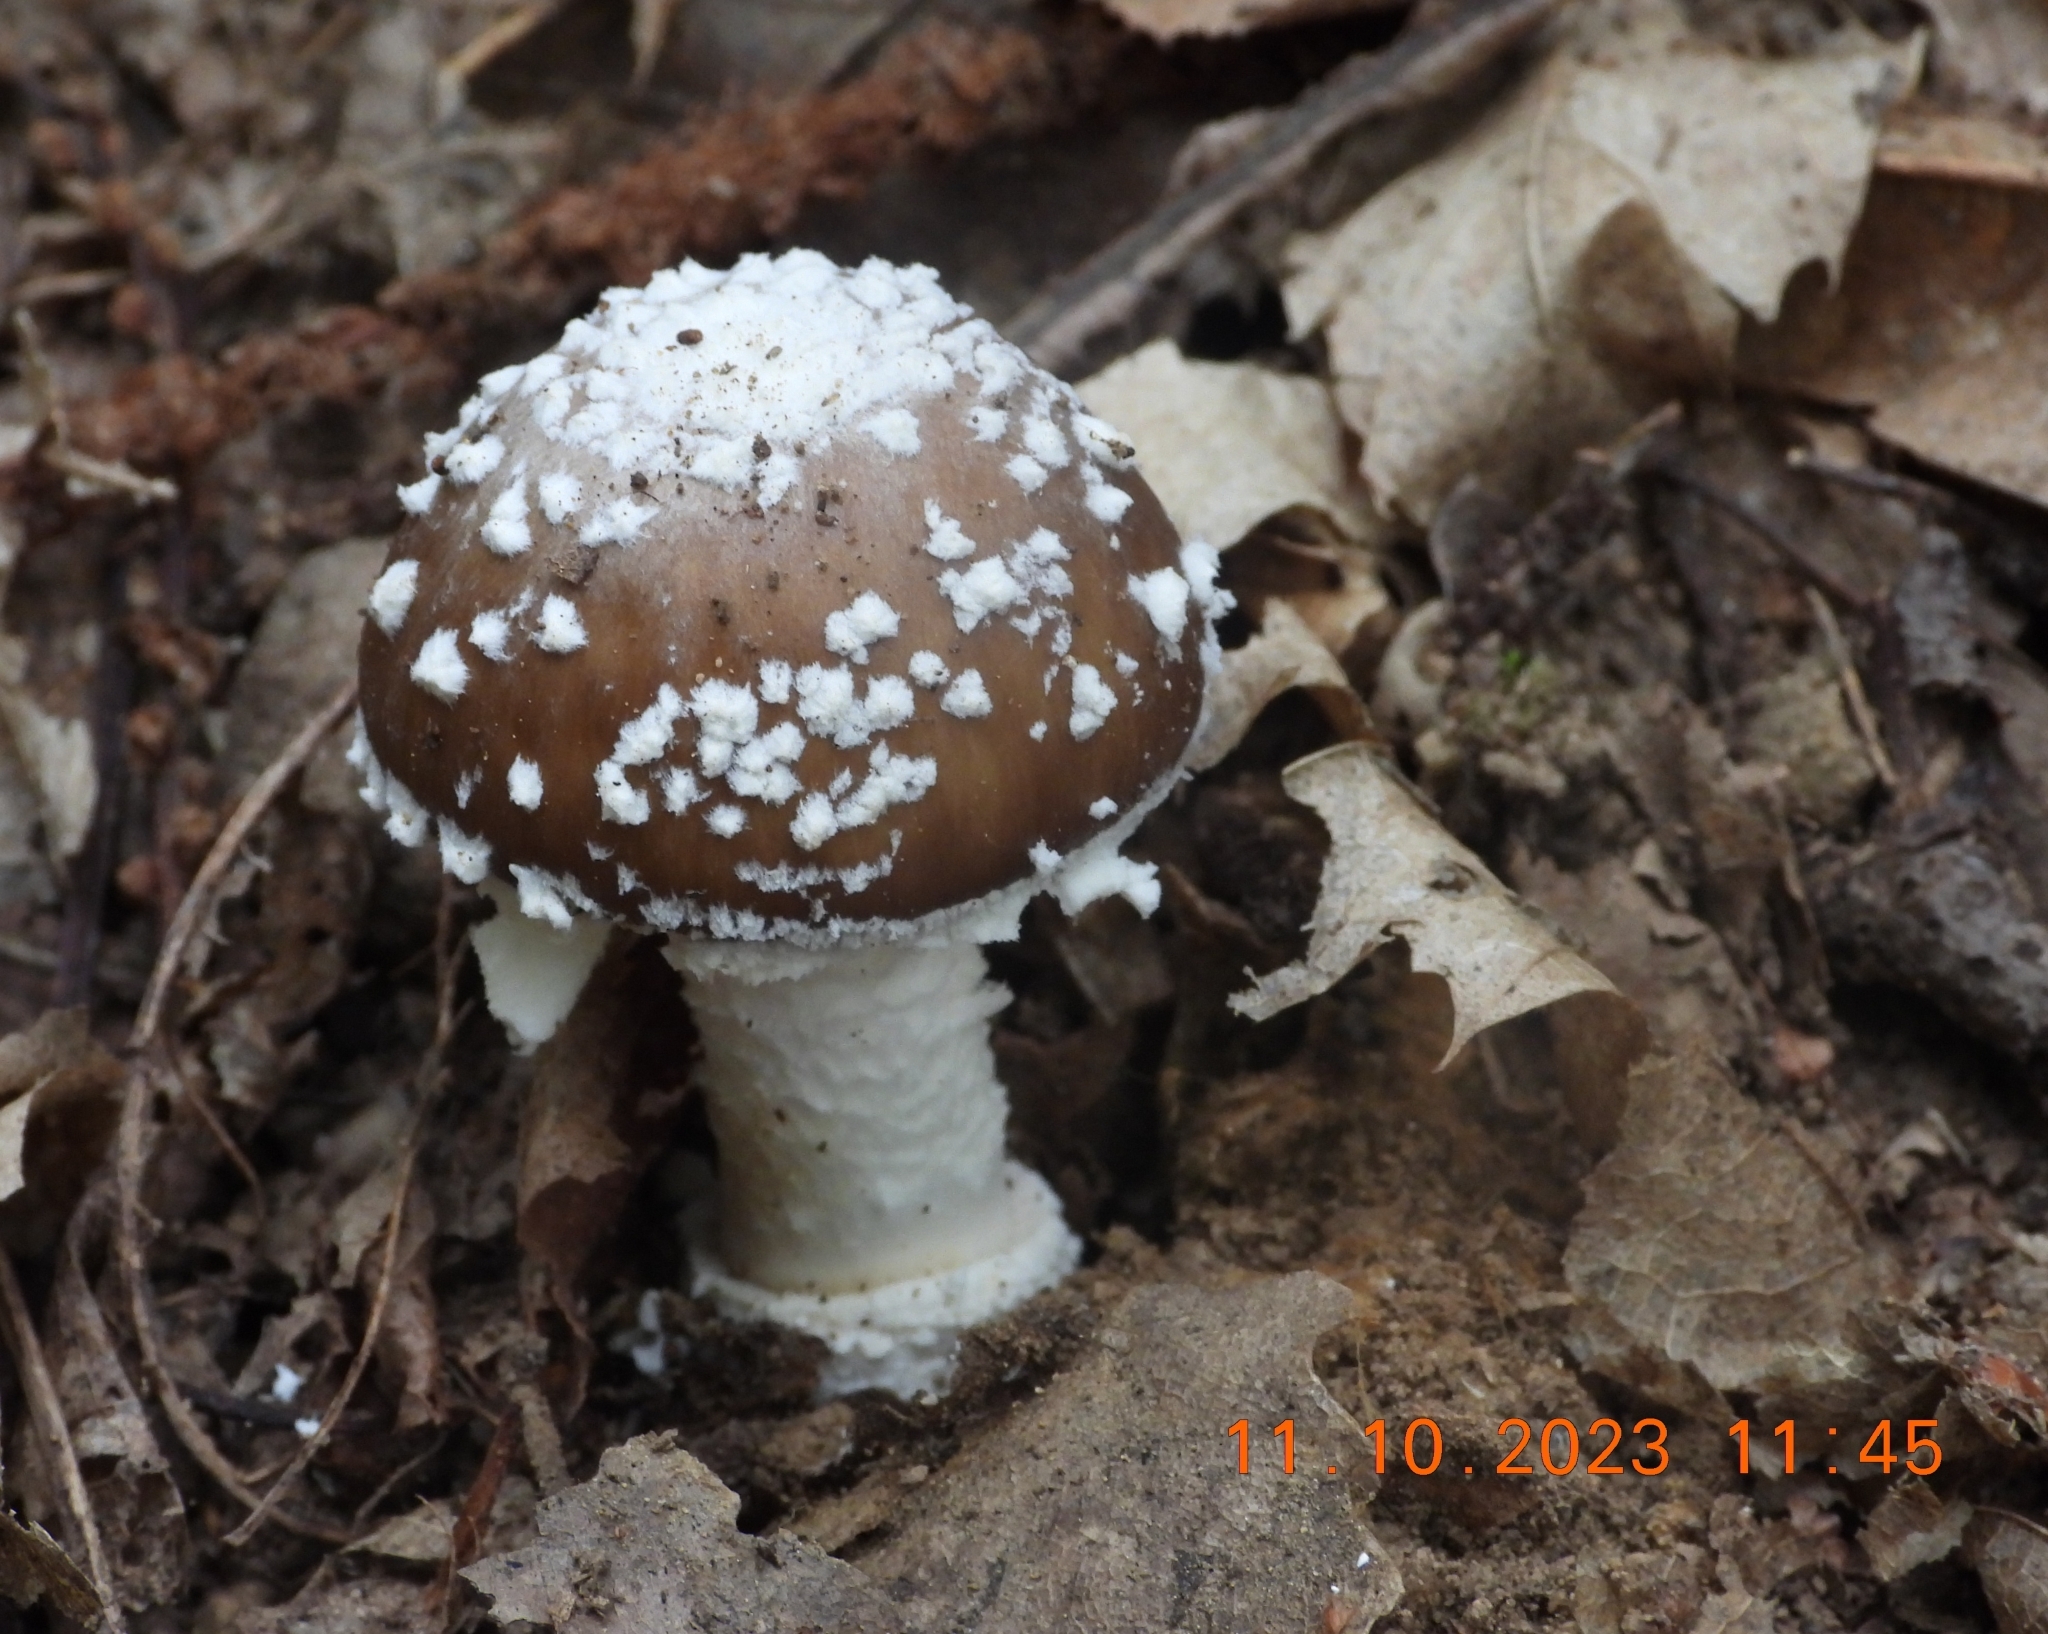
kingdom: Fungi
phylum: Basidiomycota
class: Agaricomycetes
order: Agaricales
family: Amanitaceae
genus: Amanita
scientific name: Amanita pantherina
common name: Panthercap
